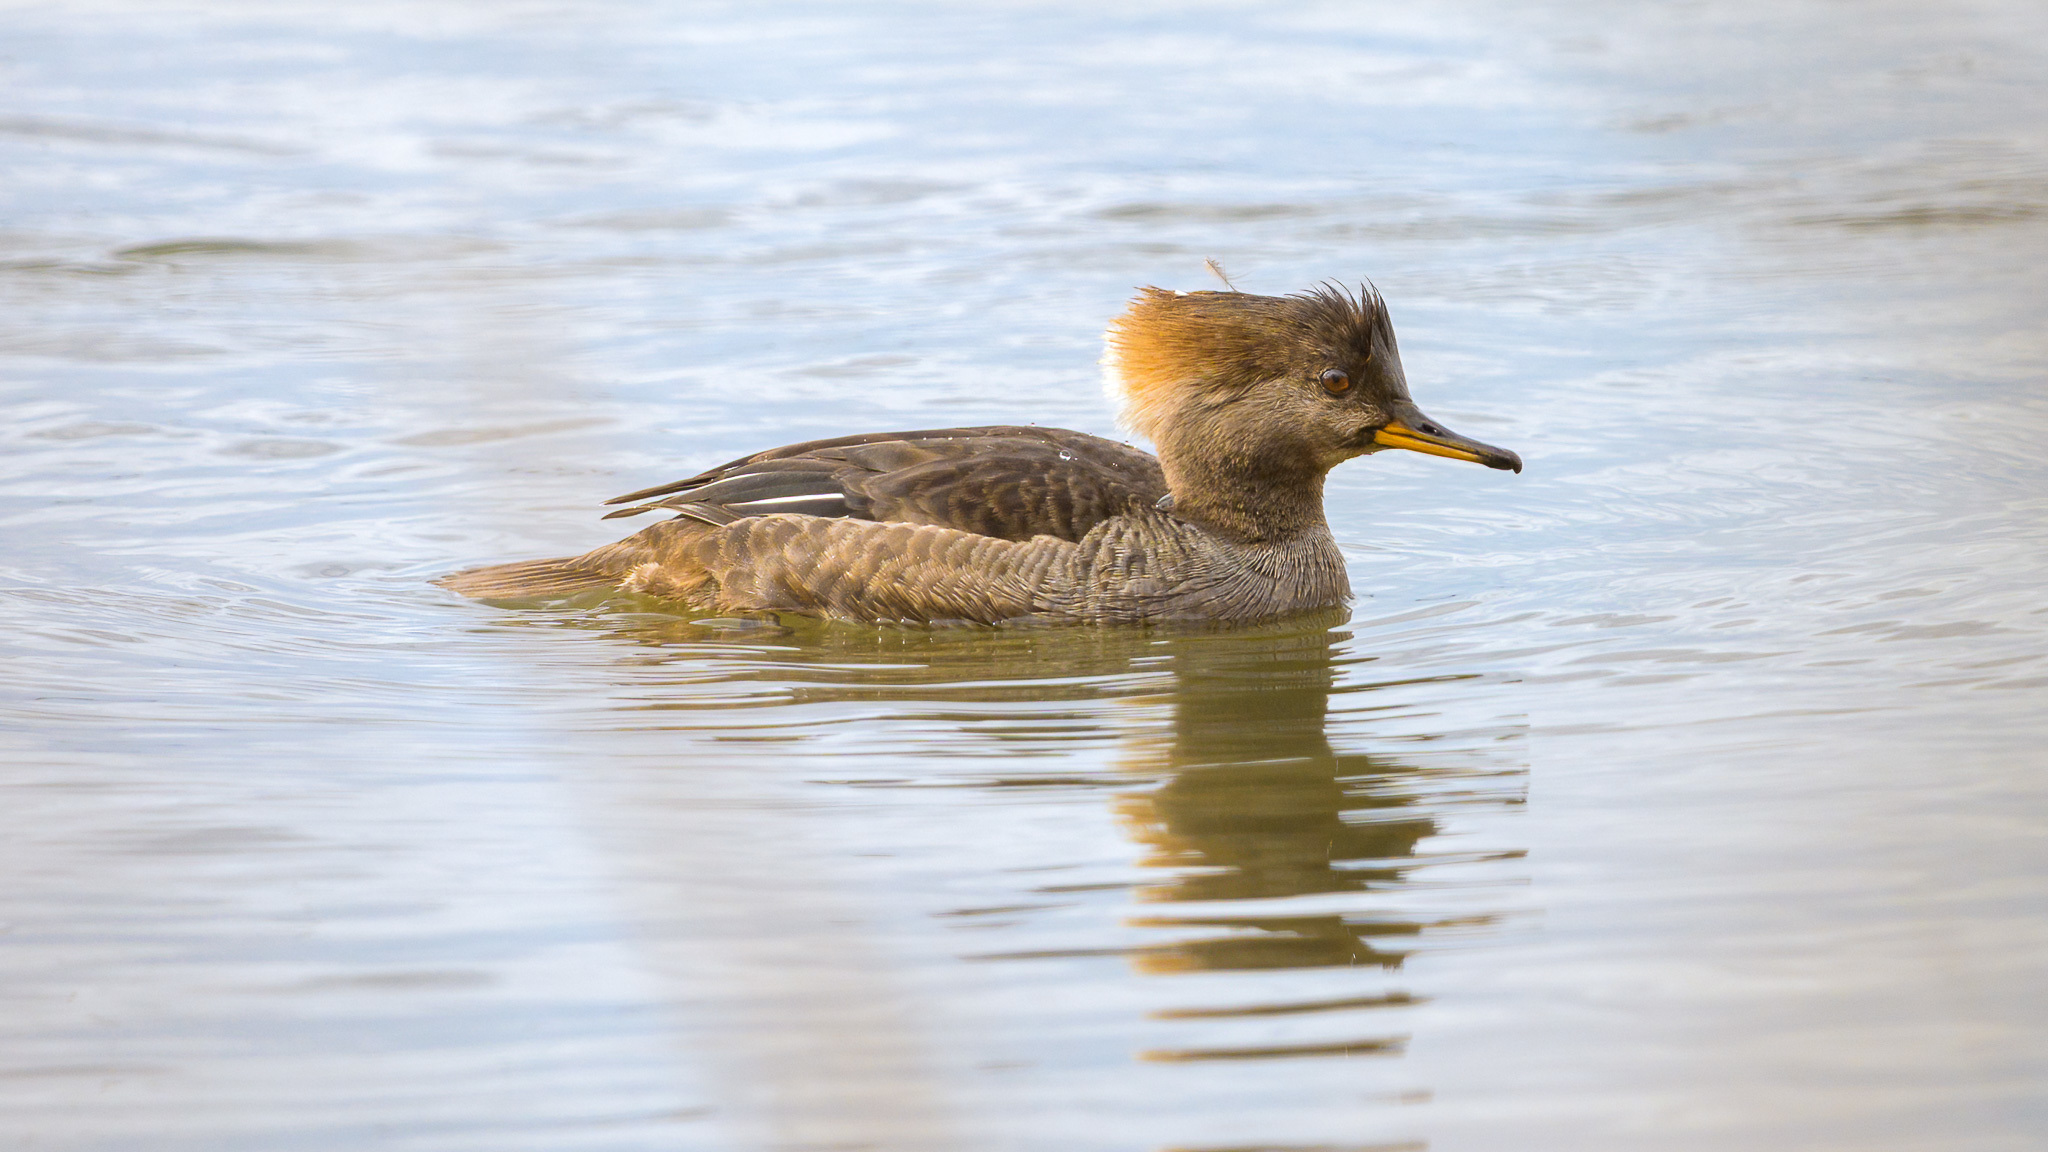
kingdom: Animalia
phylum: Chordata
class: Aves
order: Anseriformes
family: Anatidae
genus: Lophodytes
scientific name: Lophodytes cucullatus
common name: Hooded merganser
